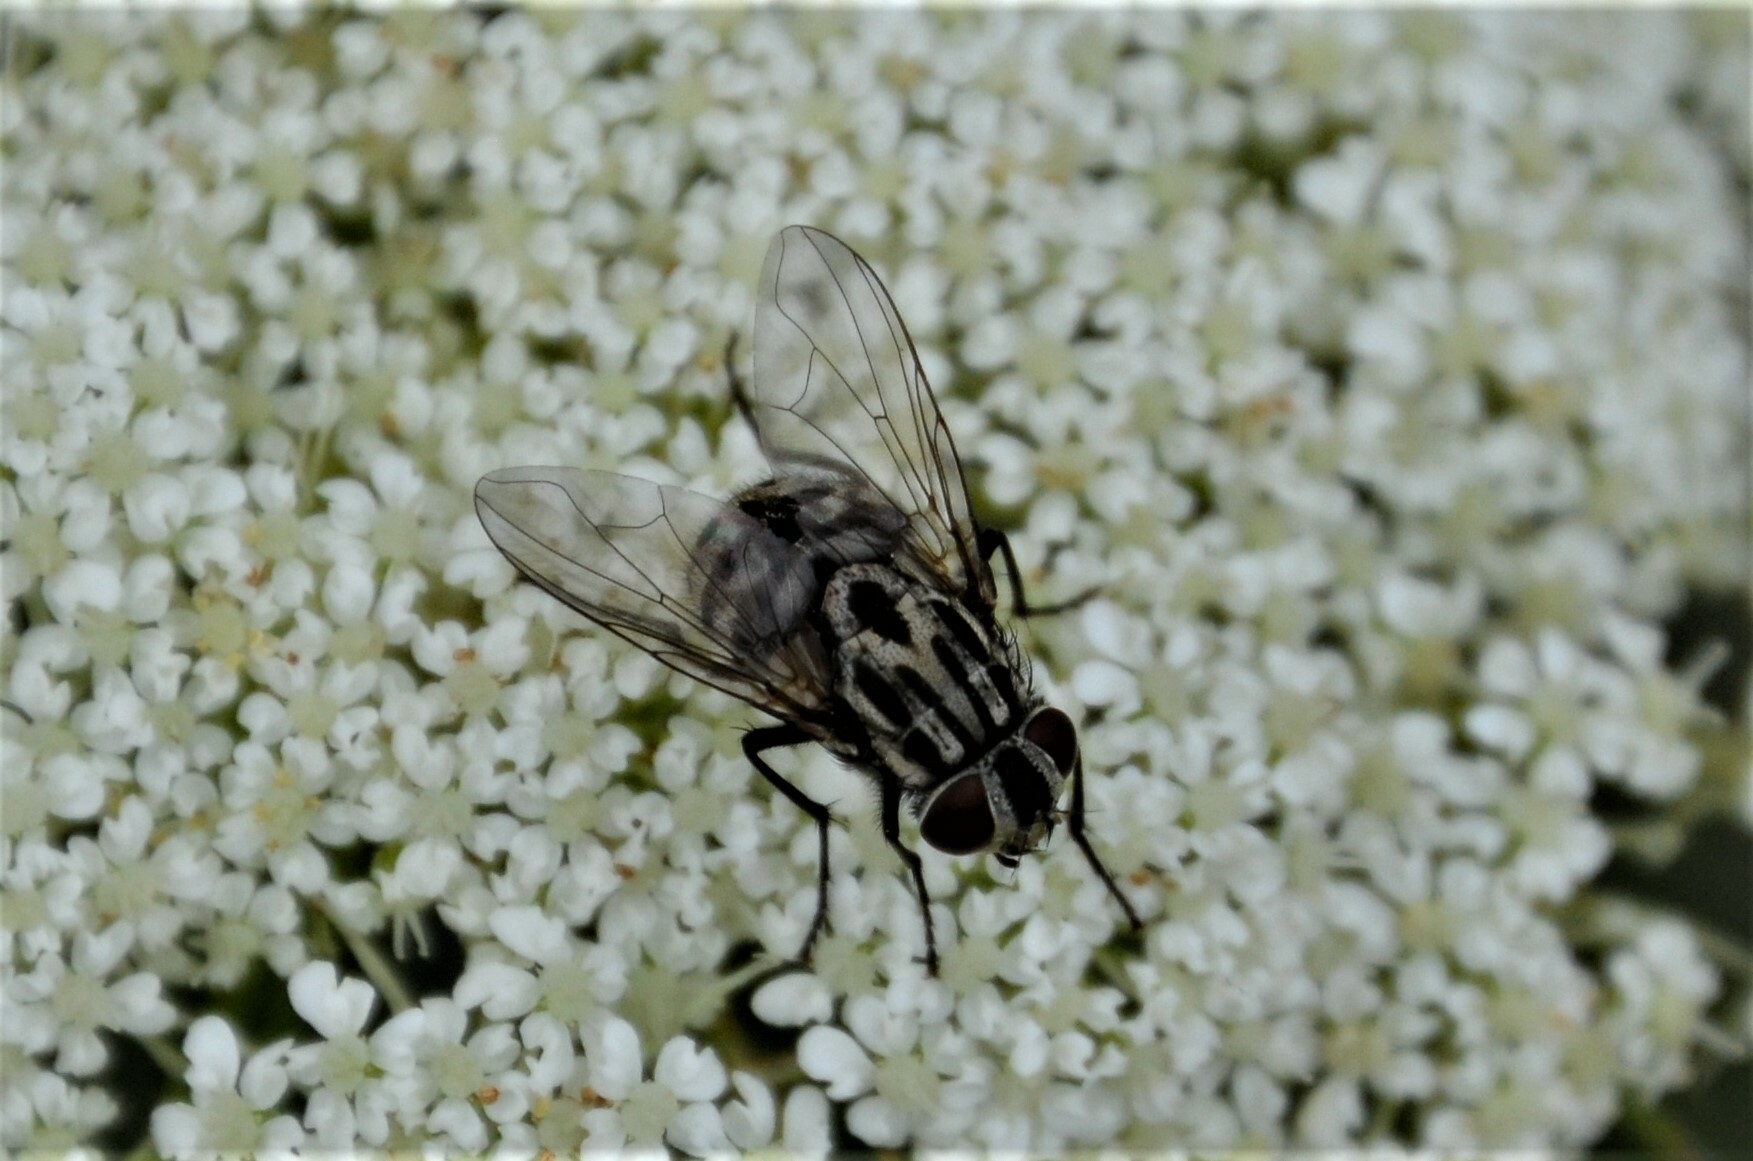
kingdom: Animalia
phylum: Arthropoda
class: Insecta
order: Diptera
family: Muscidae
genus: Graphomya
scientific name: Graphomya maculata
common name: Muscid fly
